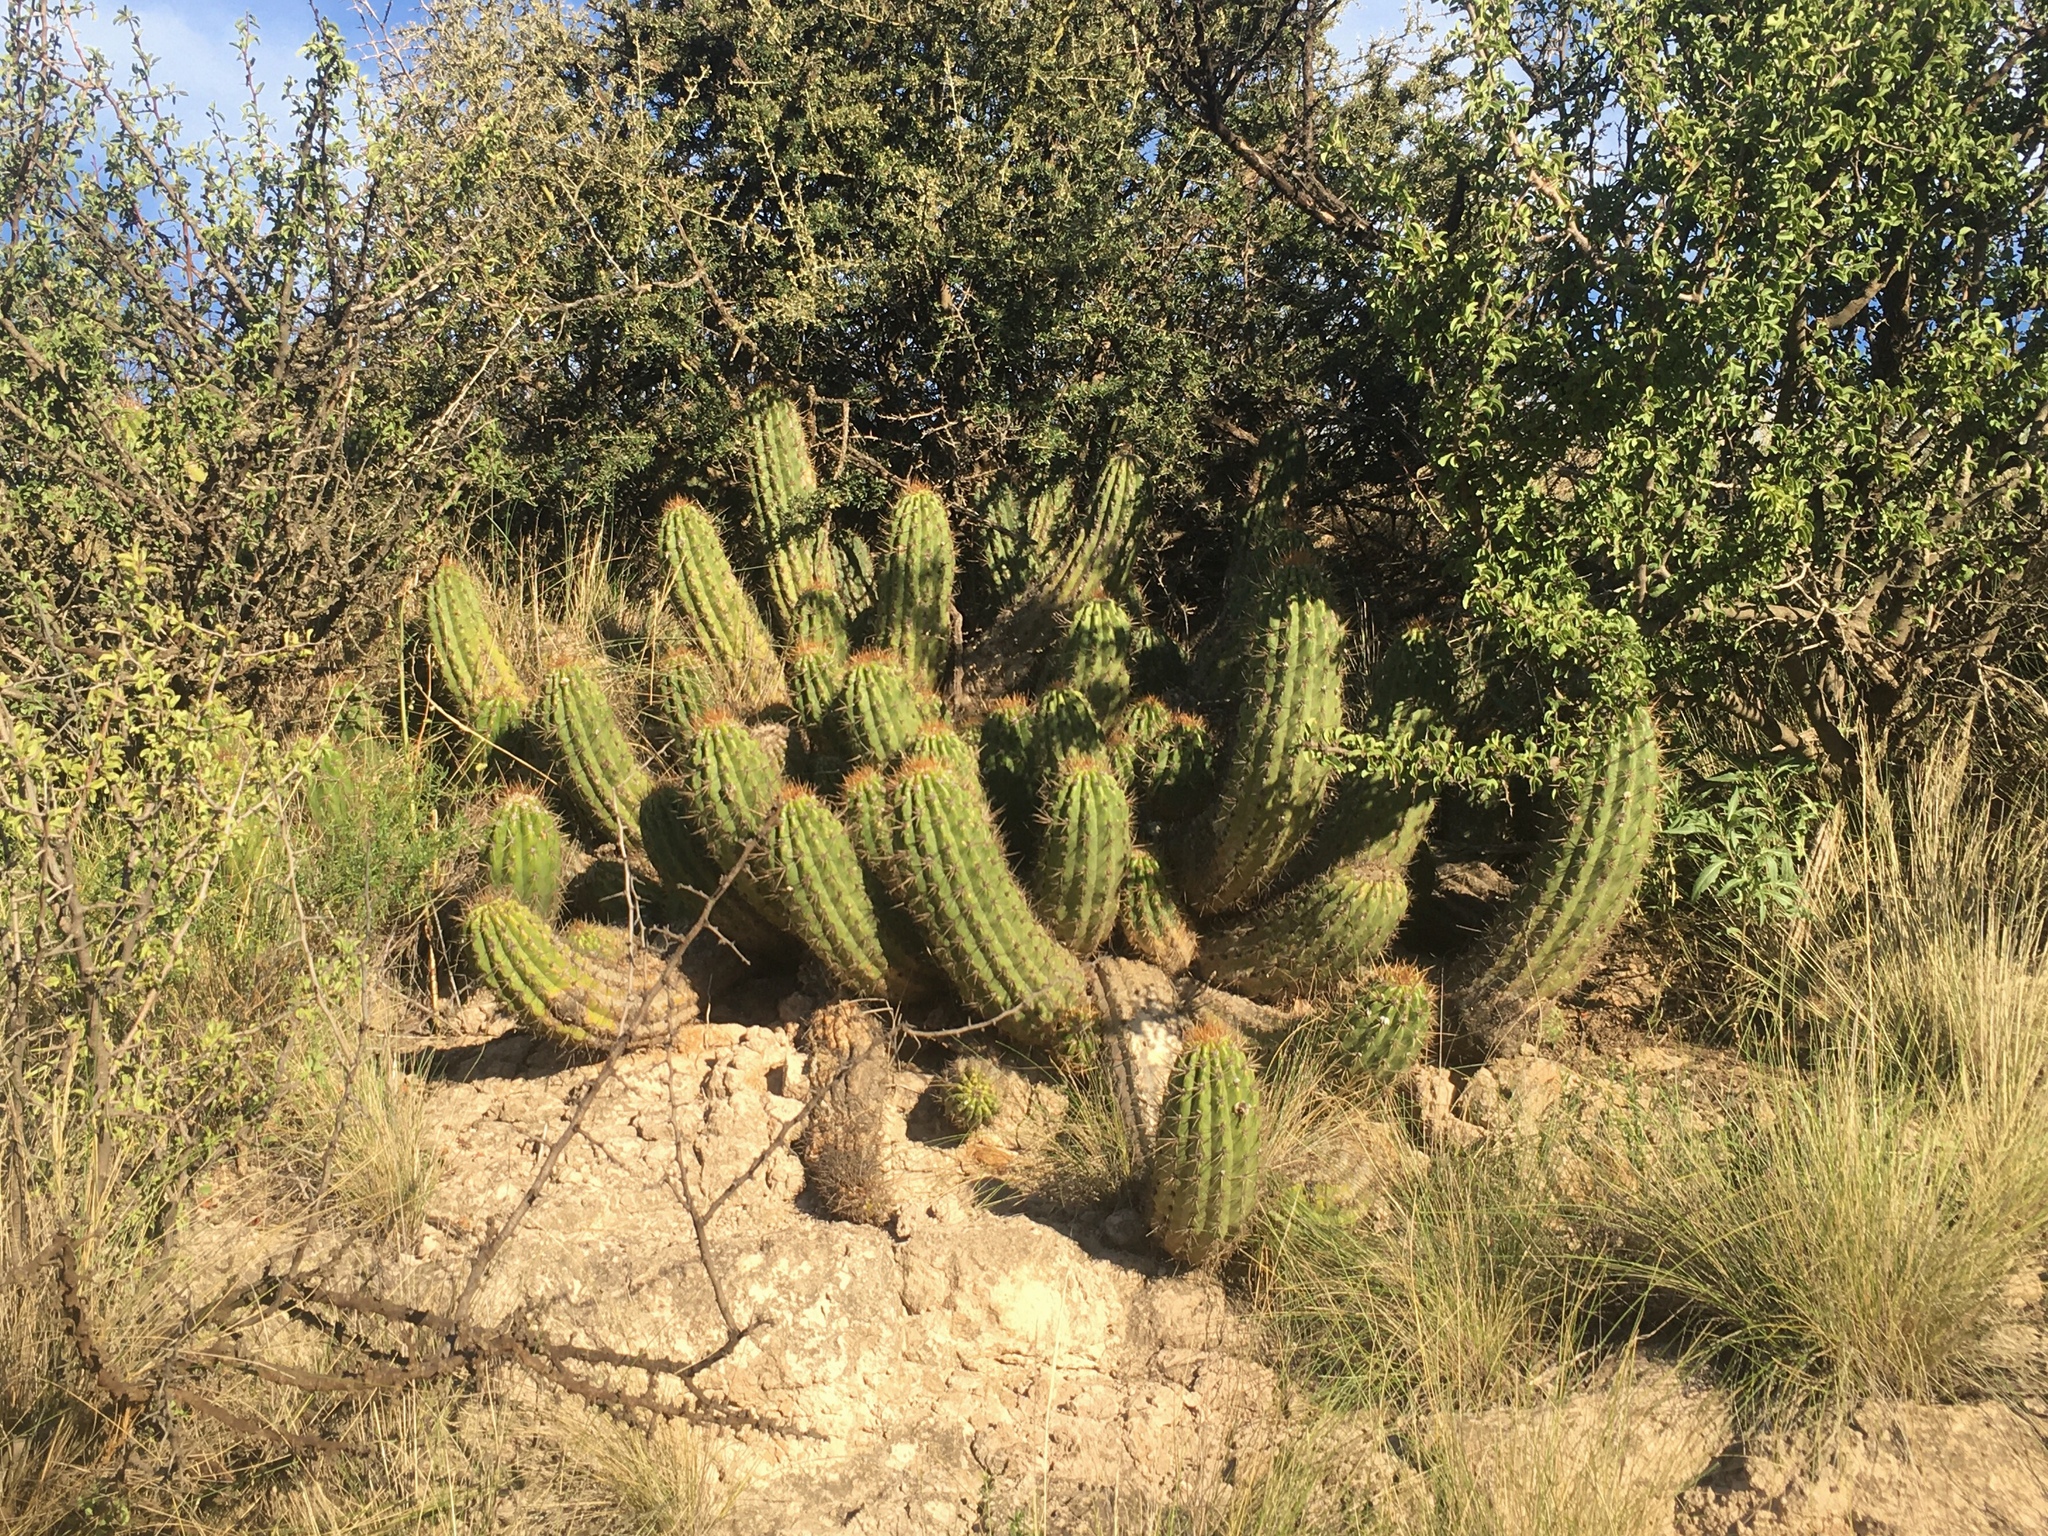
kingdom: Plantae
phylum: Tracheophyta
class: Magnoliopsida
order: Caryophyllales
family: Cactaceae
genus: Soehrensia
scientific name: Soehrensia candicans
